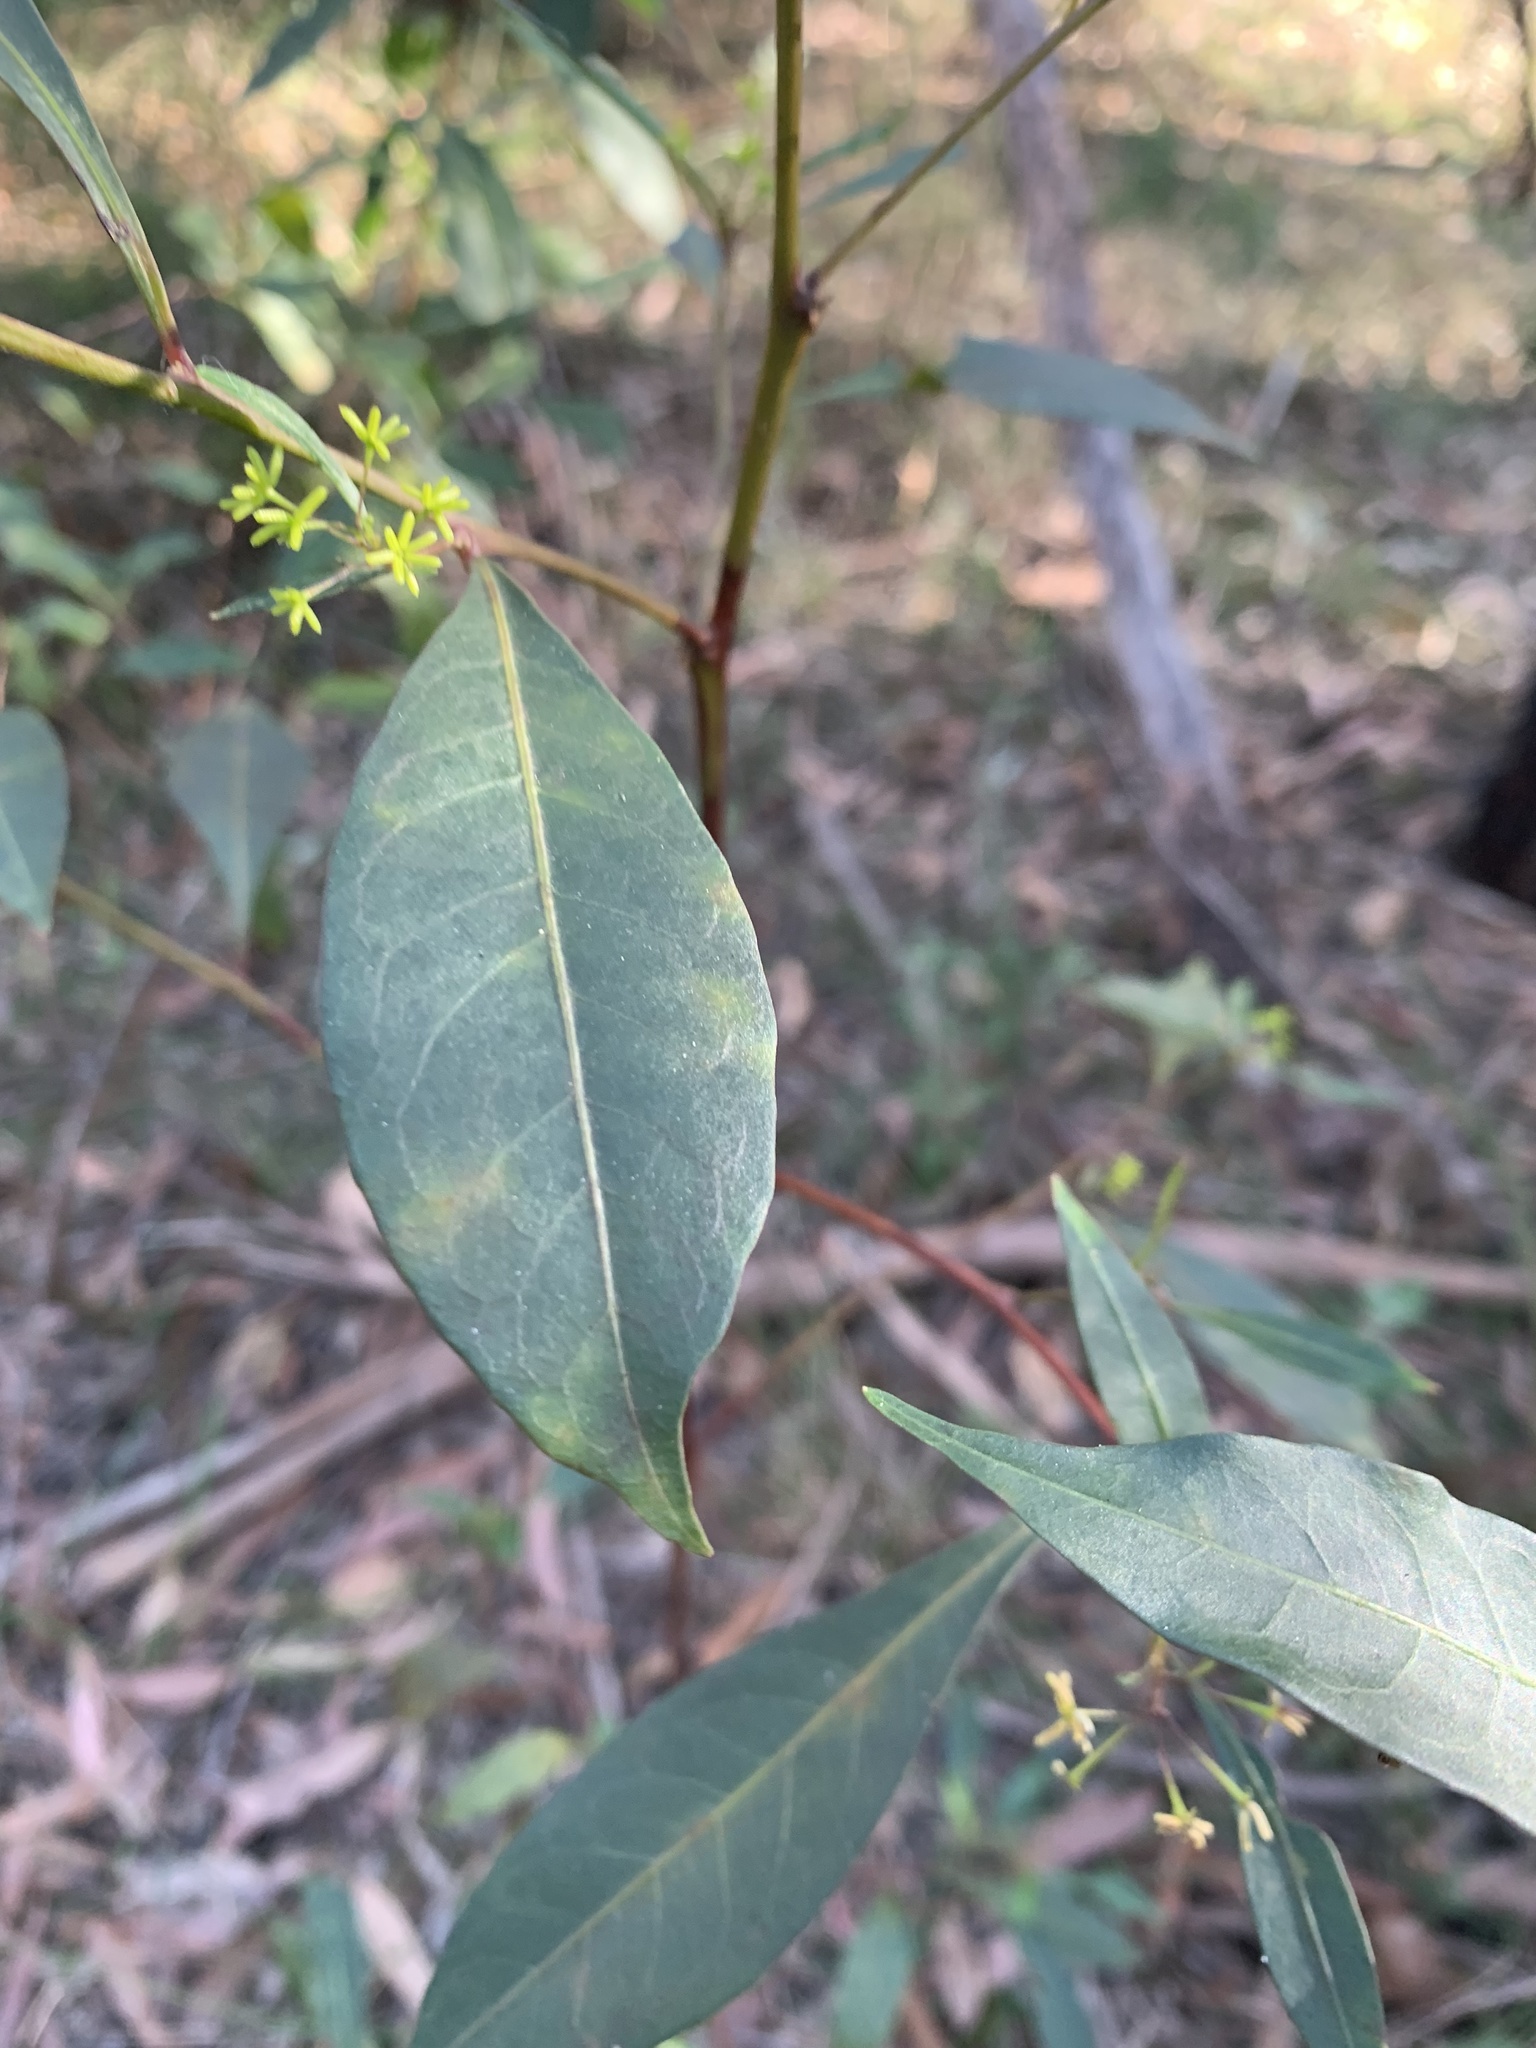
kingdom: Plantae
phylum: Tracheophyta
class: Magnoliopsida
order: Sapindales
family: Sapindaceae
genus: Dodonaea
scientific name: Dodonaea triquetra
